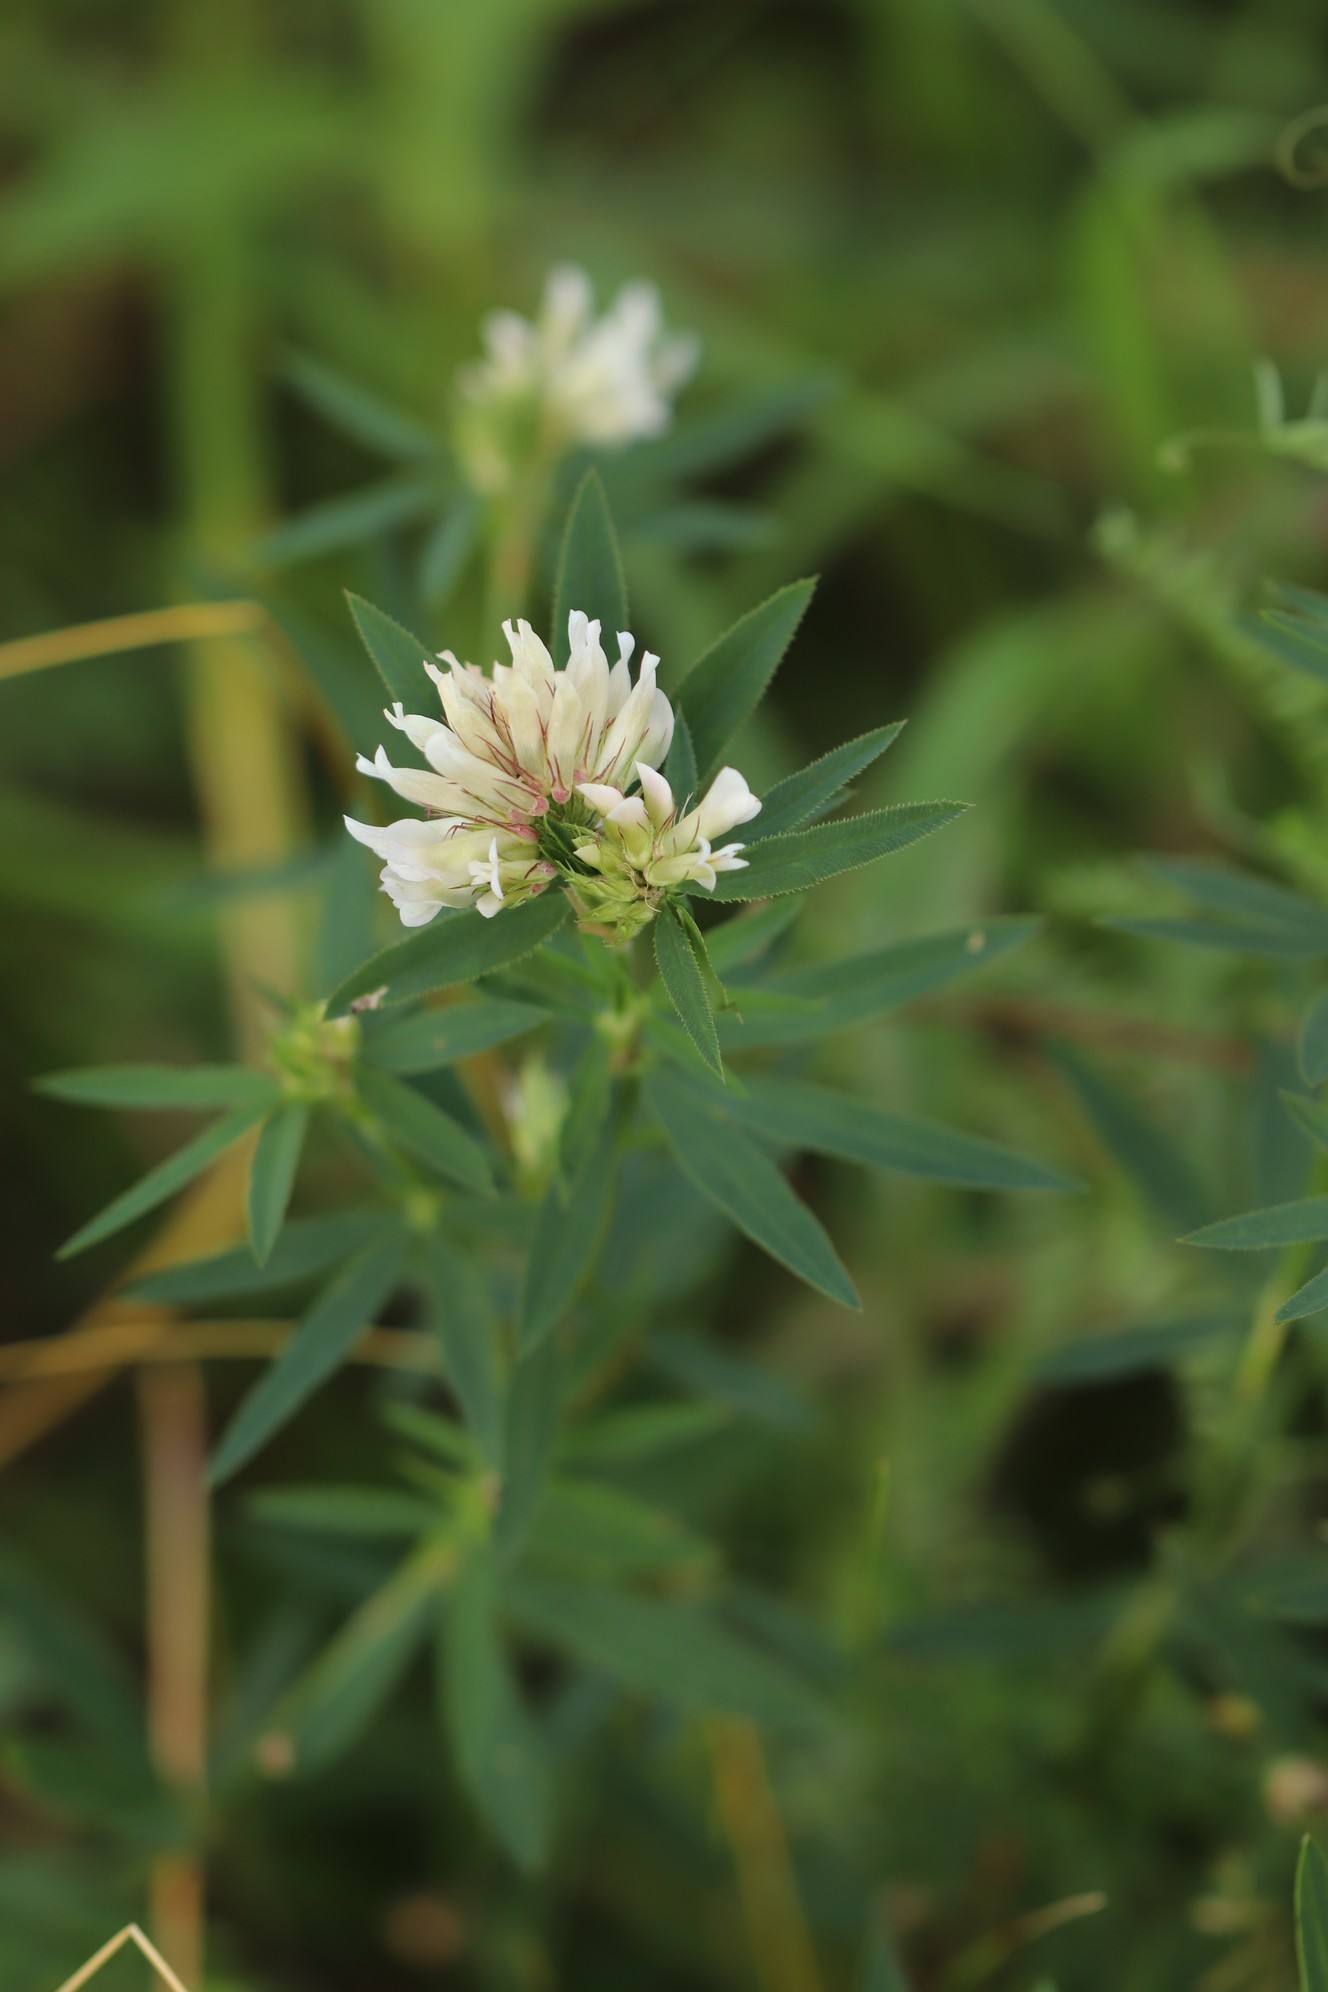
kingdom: Plantae
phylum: Tracheophyta
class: Magnoliopsida
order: Fabales
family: Fabaceae
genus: Trifolium
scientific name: Trifolium lupinaster
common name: Lupine clover
